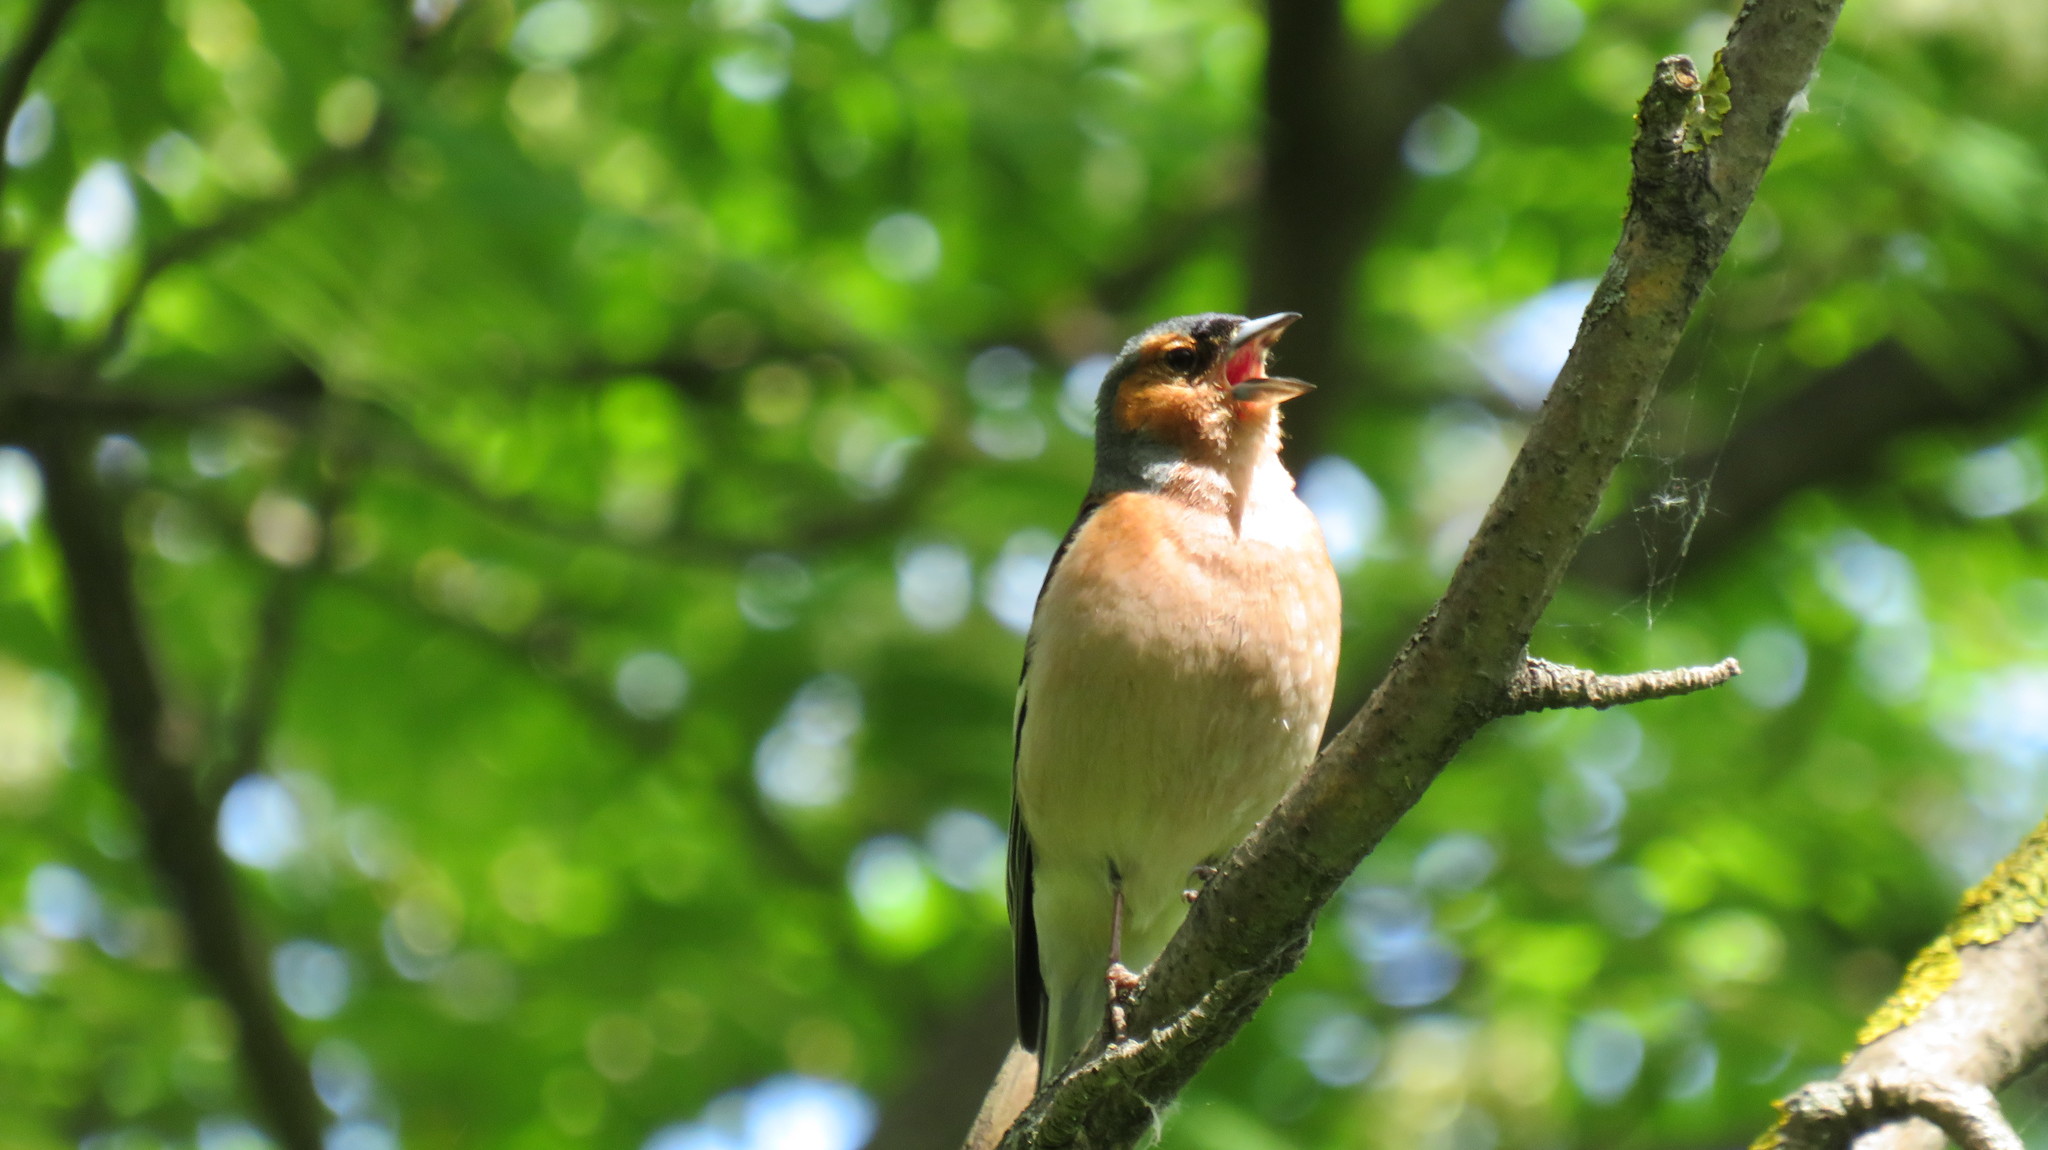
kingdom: Animalia
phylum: Chordata
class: Aves
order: Passeriformes
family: Fringillidae
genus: Fringilla
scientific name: Fringilla coelebs
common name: Common chaffinch
